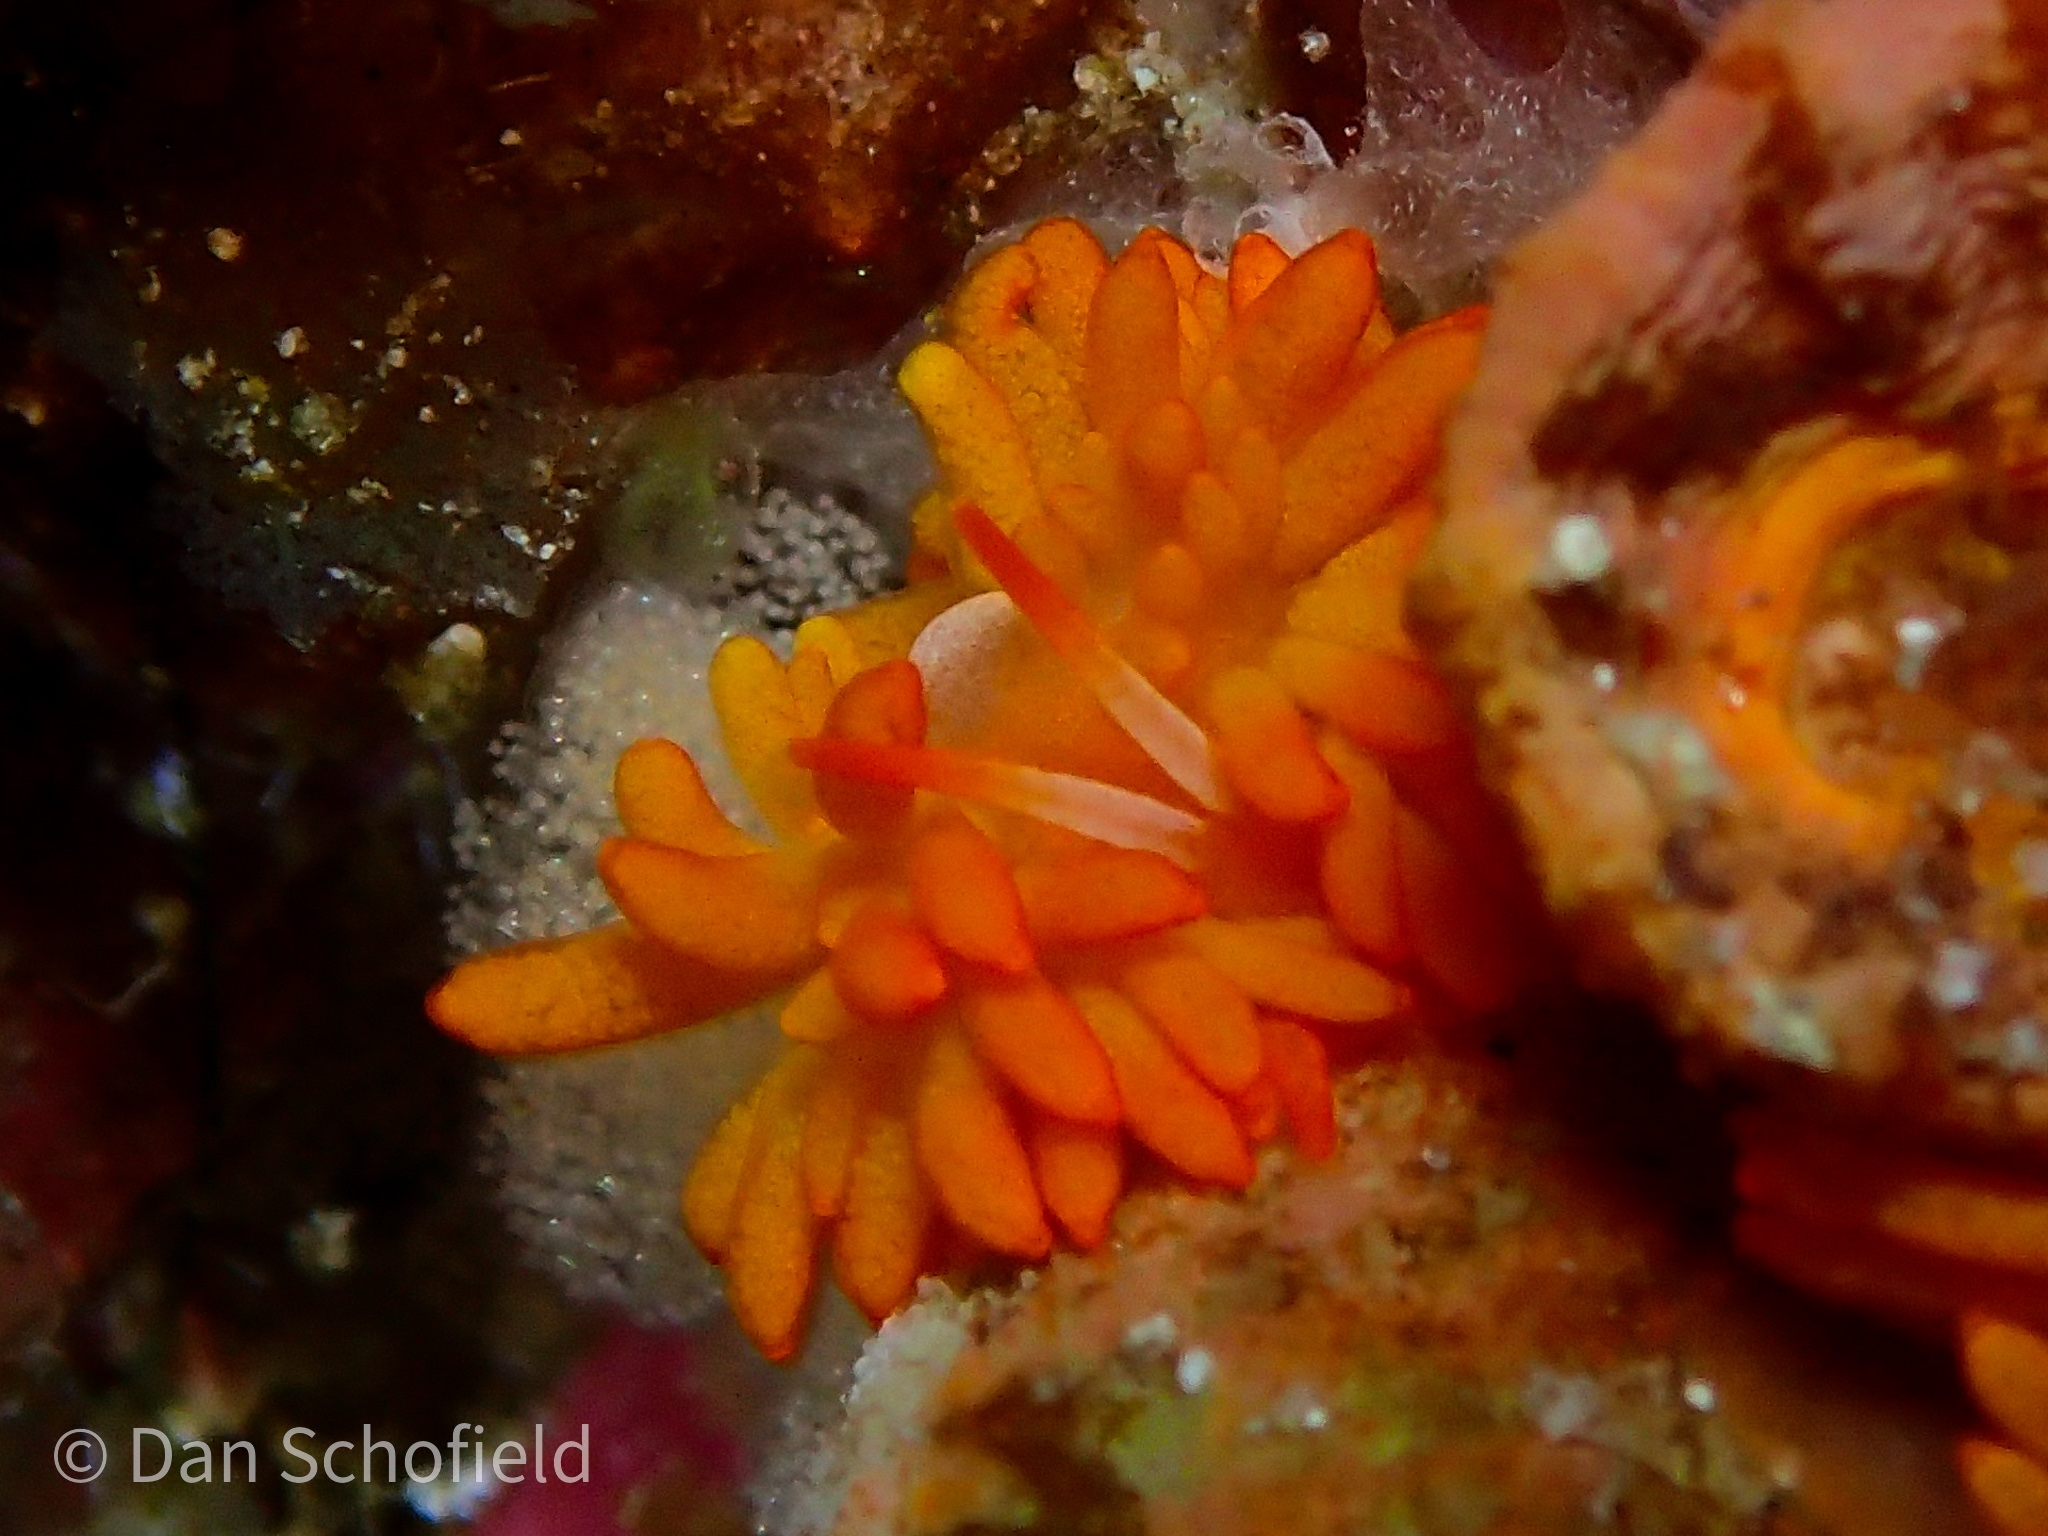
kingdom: Animalia
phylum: Mollusca
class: Gastropoda
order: Nudibranchia
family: Trinchesiidae
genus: Phestilla
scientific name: Phestilla melanobrachia
